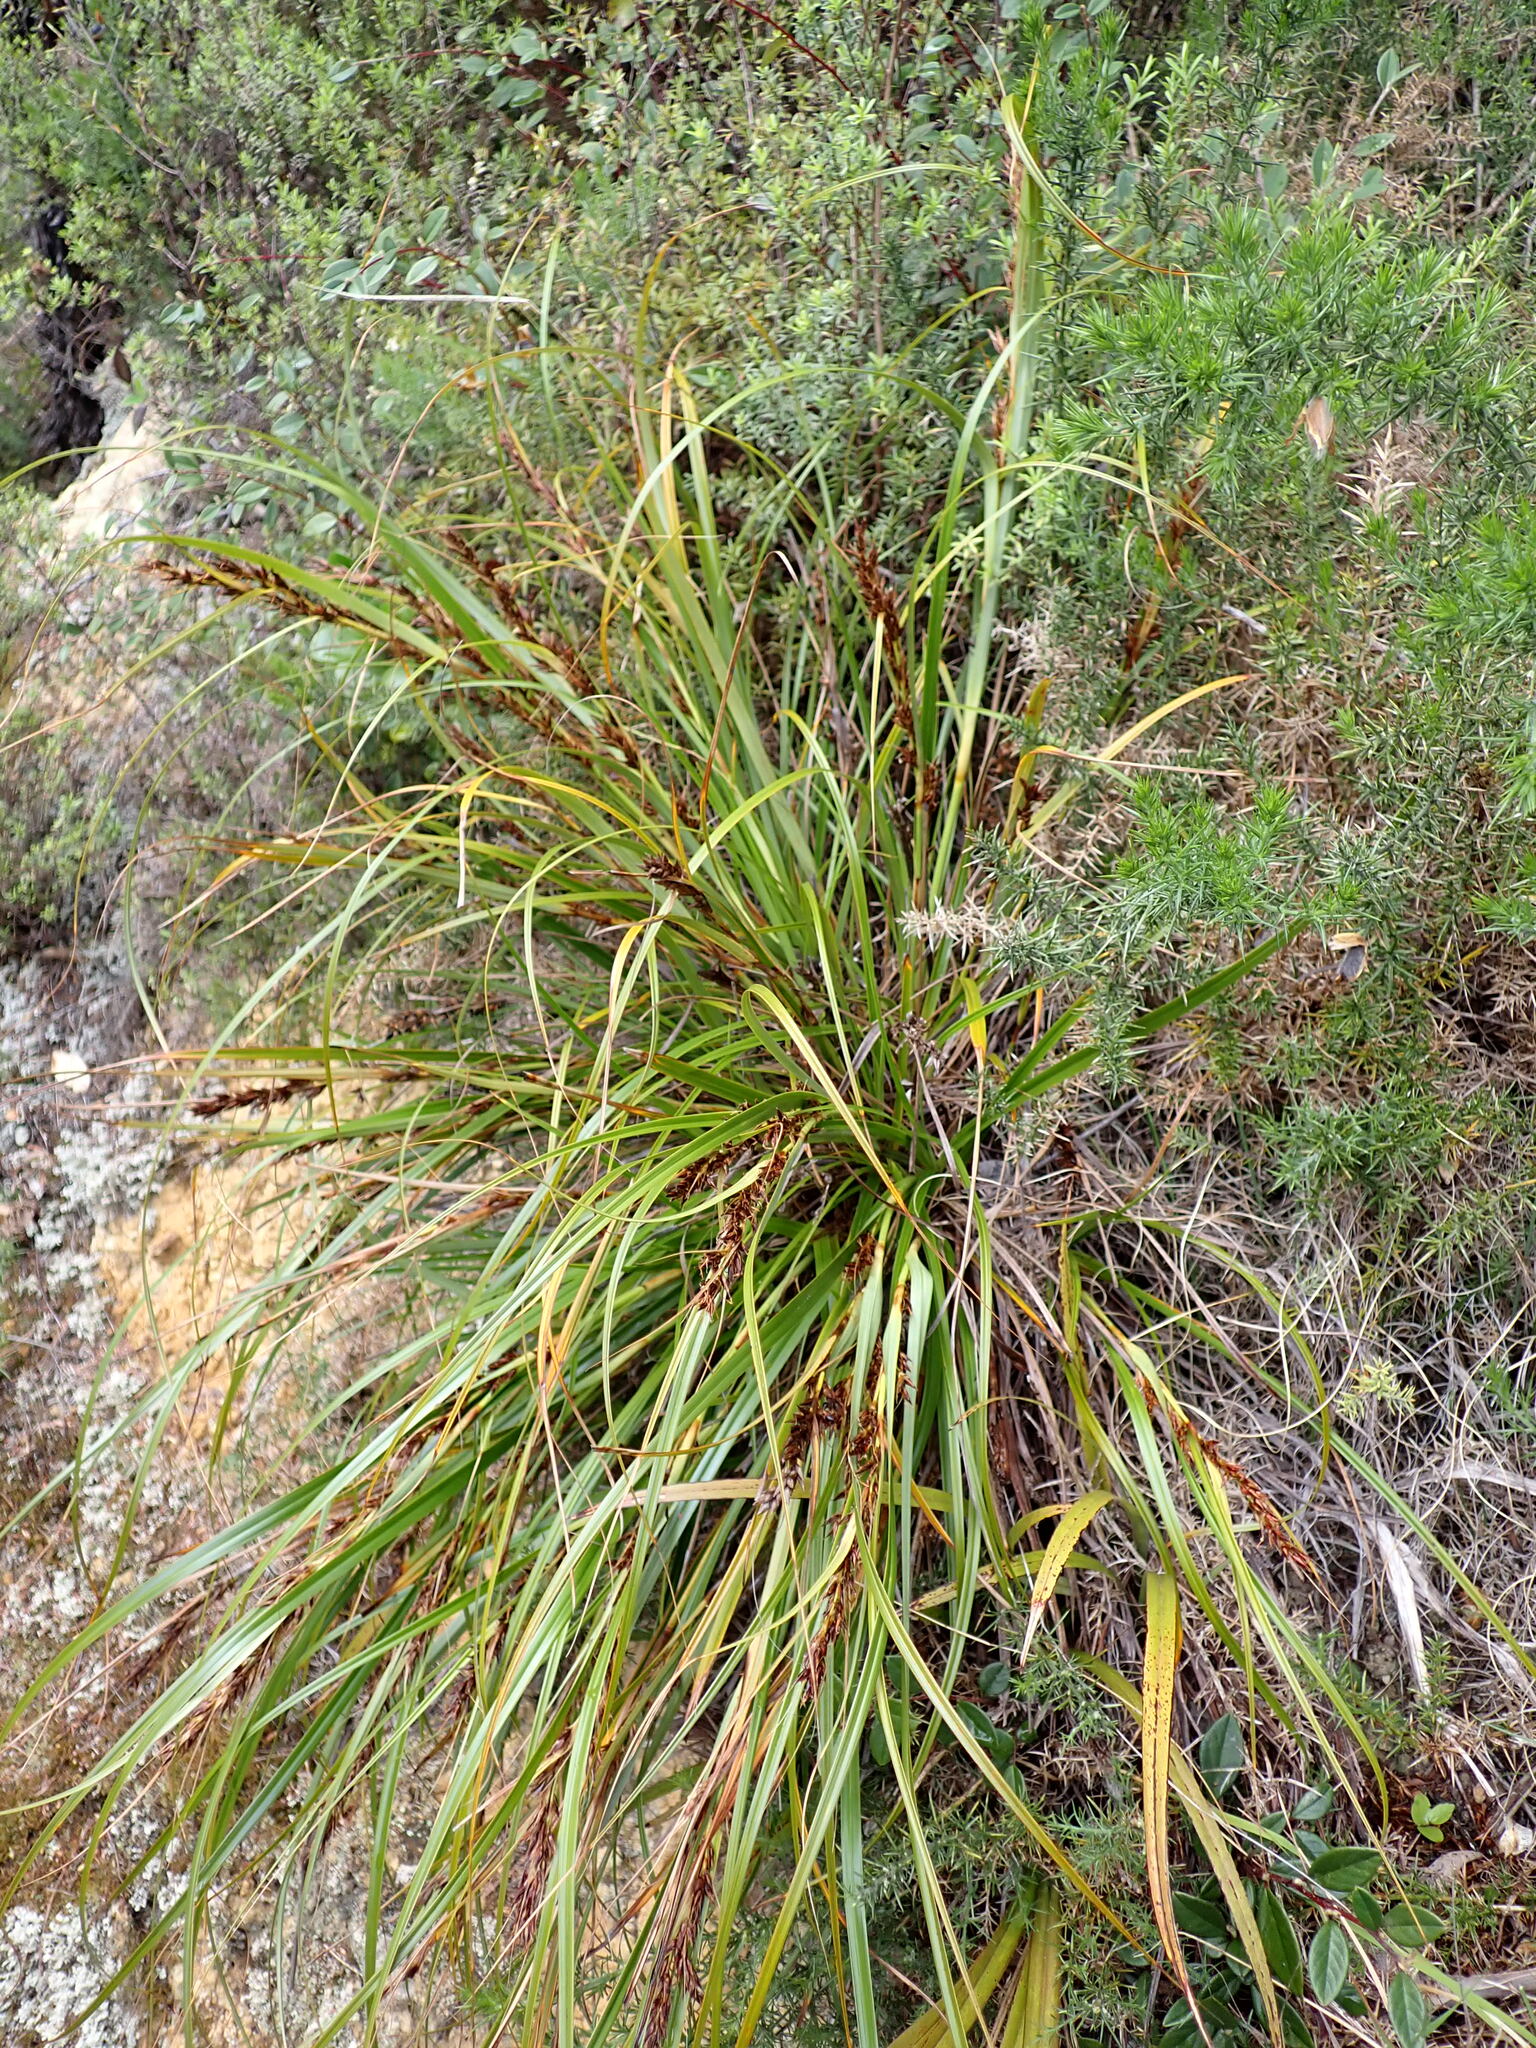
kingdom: Plantae
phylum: Tracheophyta
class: Liliopsida
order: Poales
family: Cyperaceae
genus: Morelotia
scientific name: Morelotia affinis
